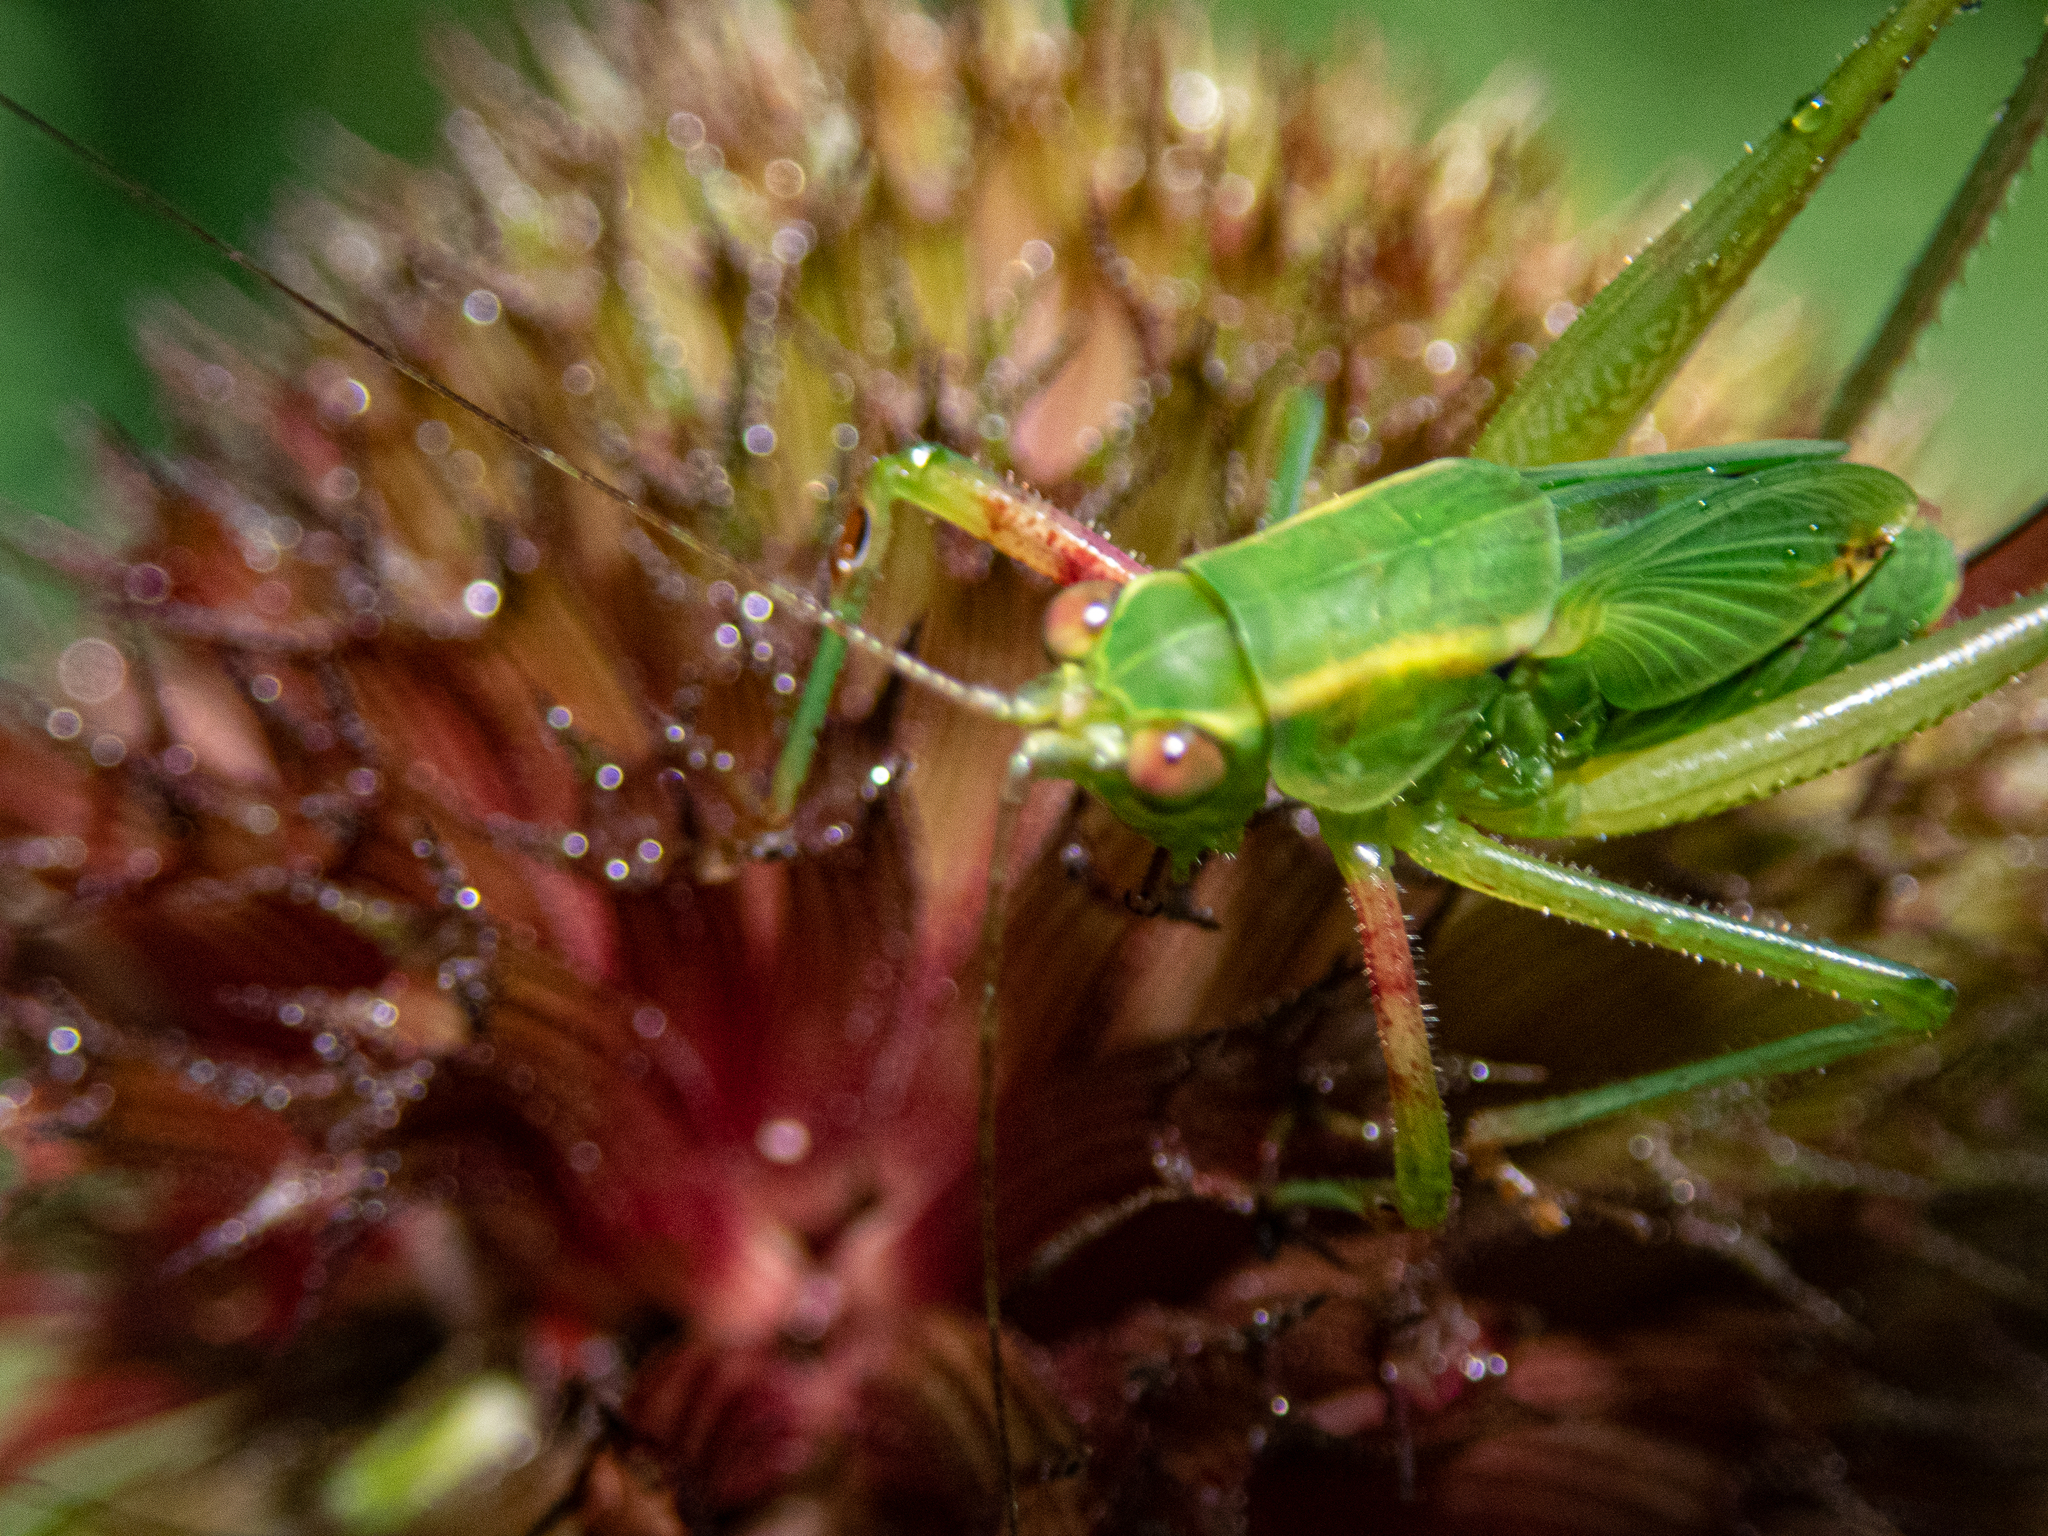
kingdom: Plantae
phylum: Tracheophyta
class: Magnoliopsida
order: Lamiales
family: Lamiaceae
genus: Monarda
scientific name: Monarda didyma
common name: Beebalm
